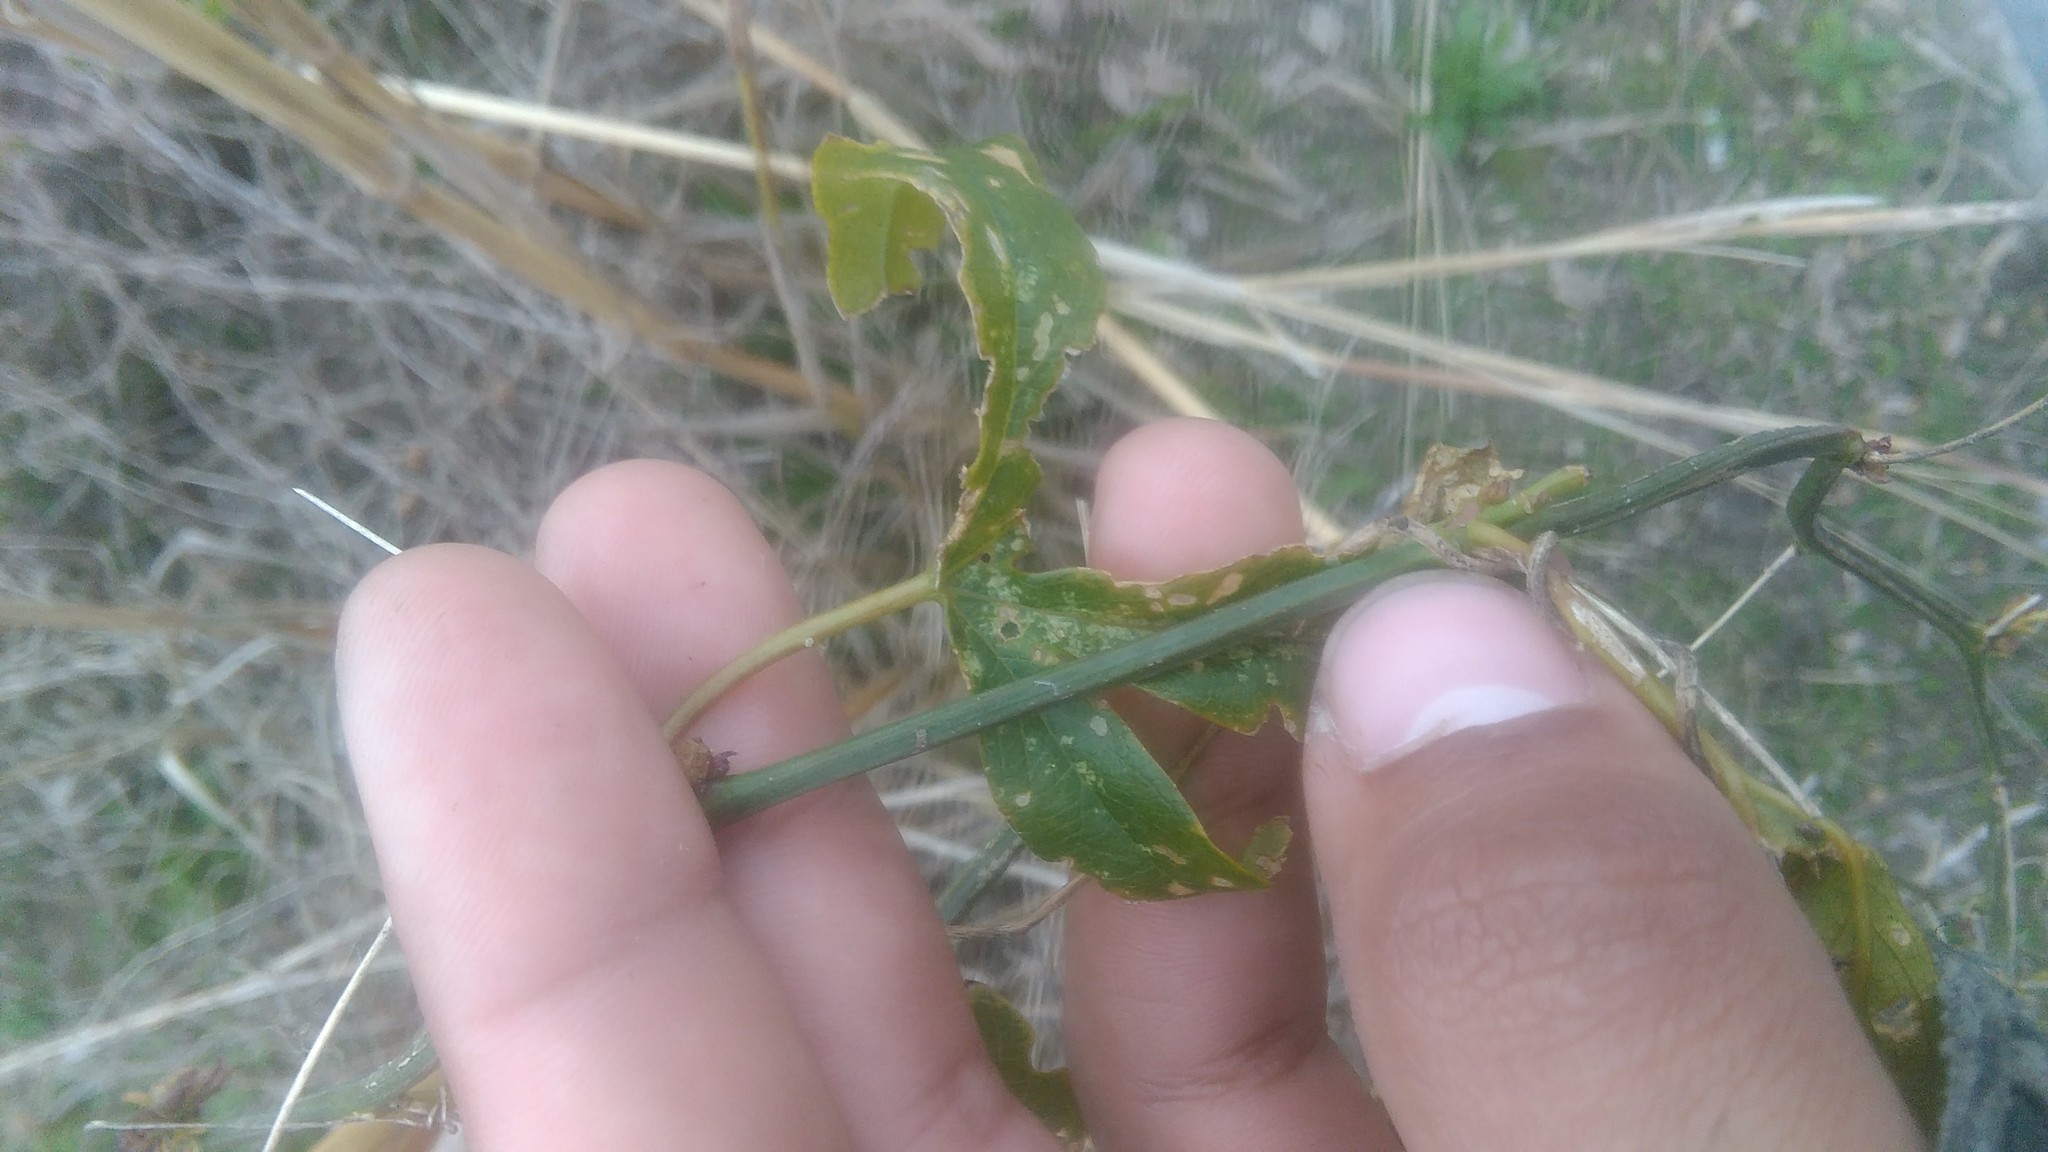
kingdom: Plantae
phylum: Tracheophyta
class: Magnoliopsida
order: Malpighiales
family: Passifloraceae
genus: Passiflora
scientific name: Passiflora caerulea
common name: Blue passionflower
